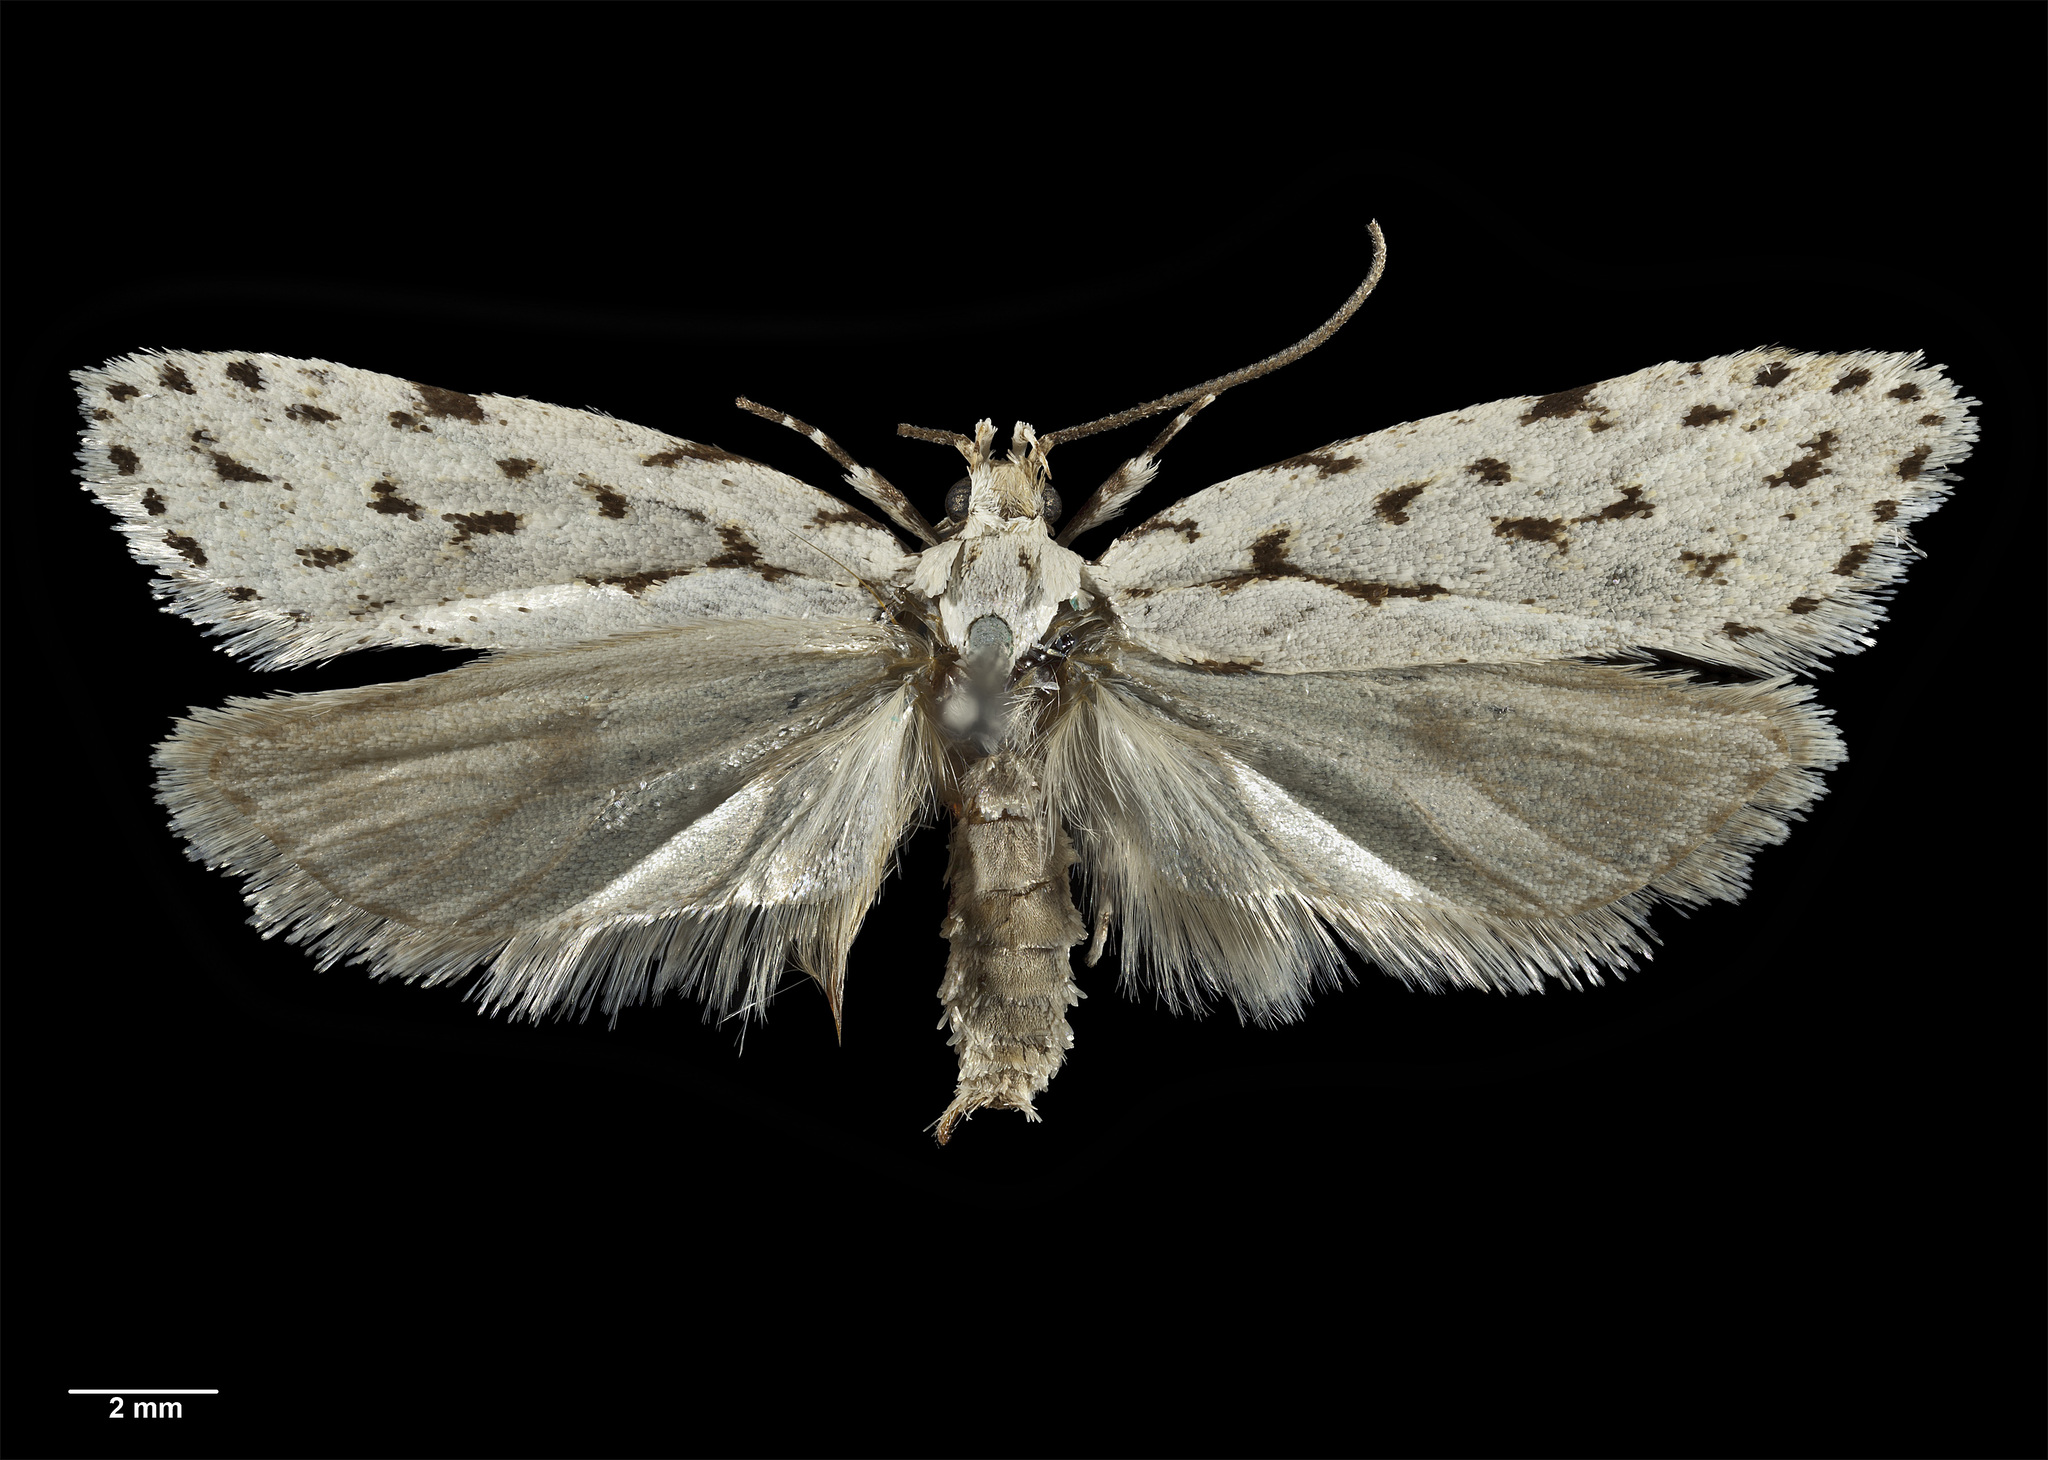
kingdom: Animalia
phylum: Arthropoda
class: Insecta
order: Lepidoptera
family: Oecophoridae
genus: Izatha
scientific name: Izatha toreuma
